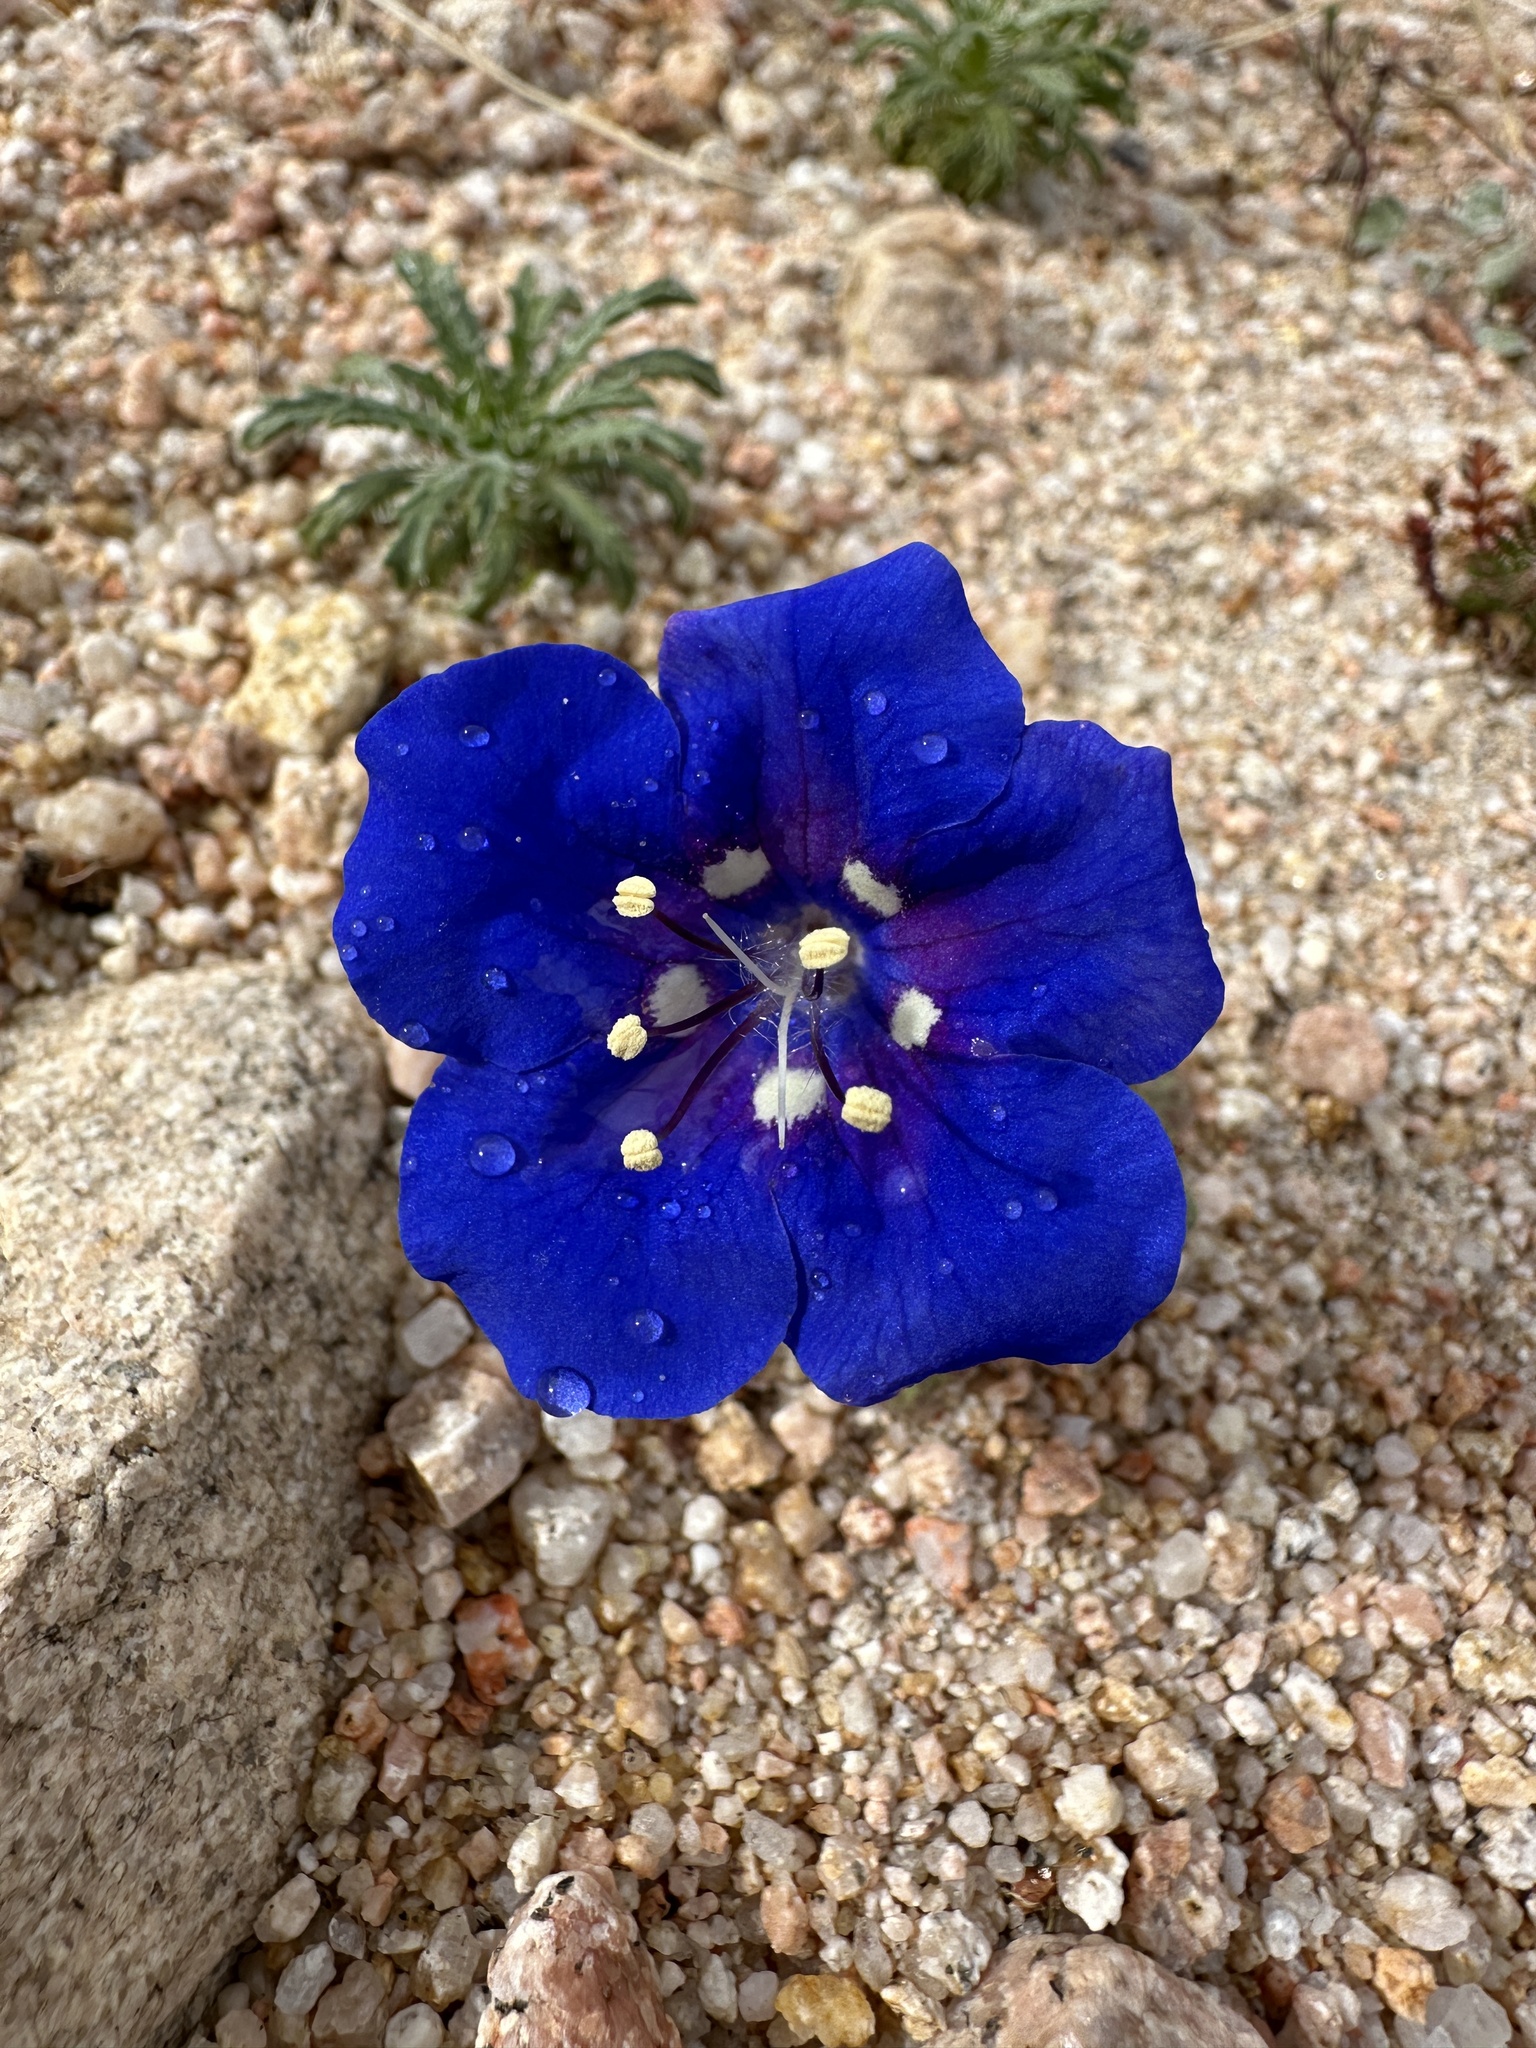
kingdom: Plantae
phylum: Tracheophyta
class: Magnoliopsida
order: Boraginales
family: Hydrophyllaceae
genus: Phacelia
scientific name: Phacelia nashiana
